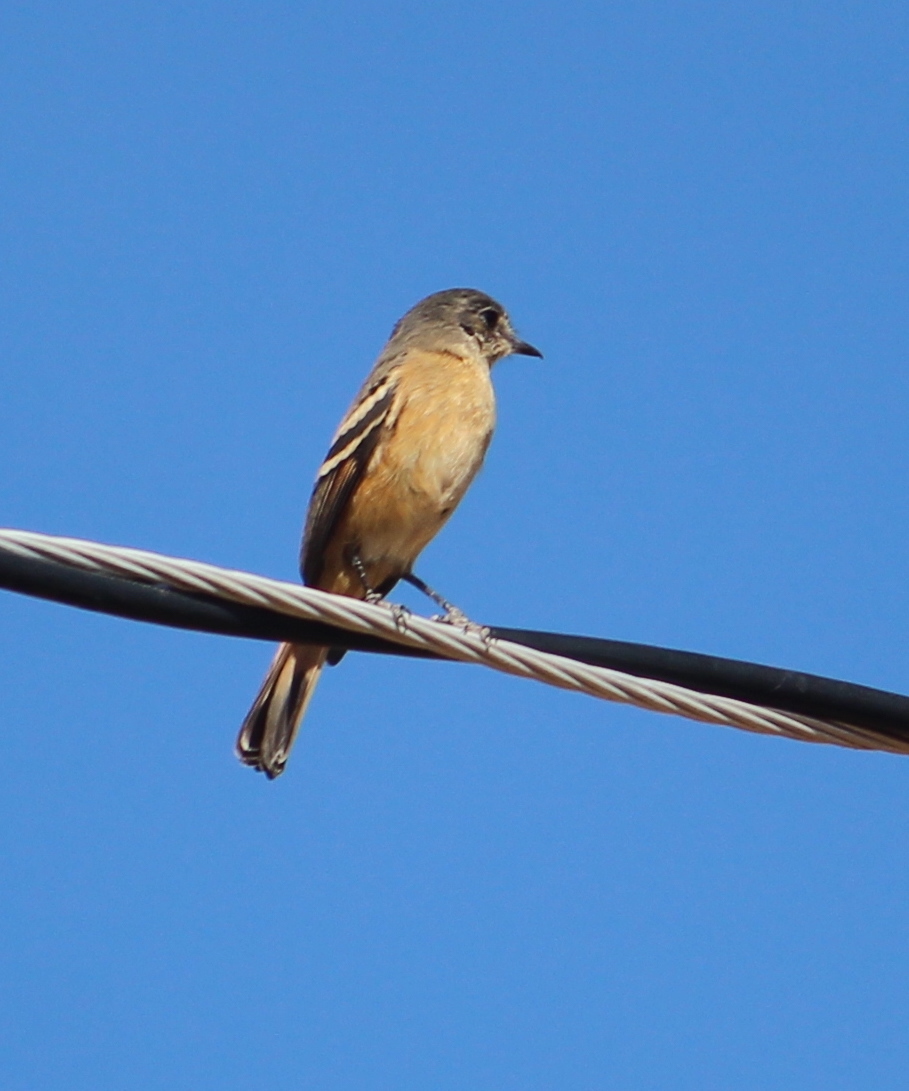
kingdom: Animalia
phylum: Chordata
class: Aves
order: Passeriformes
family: Tyrannidae
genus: Knipolegus
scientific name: Knipolegus aterrimus
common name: White-winged black tyrant
